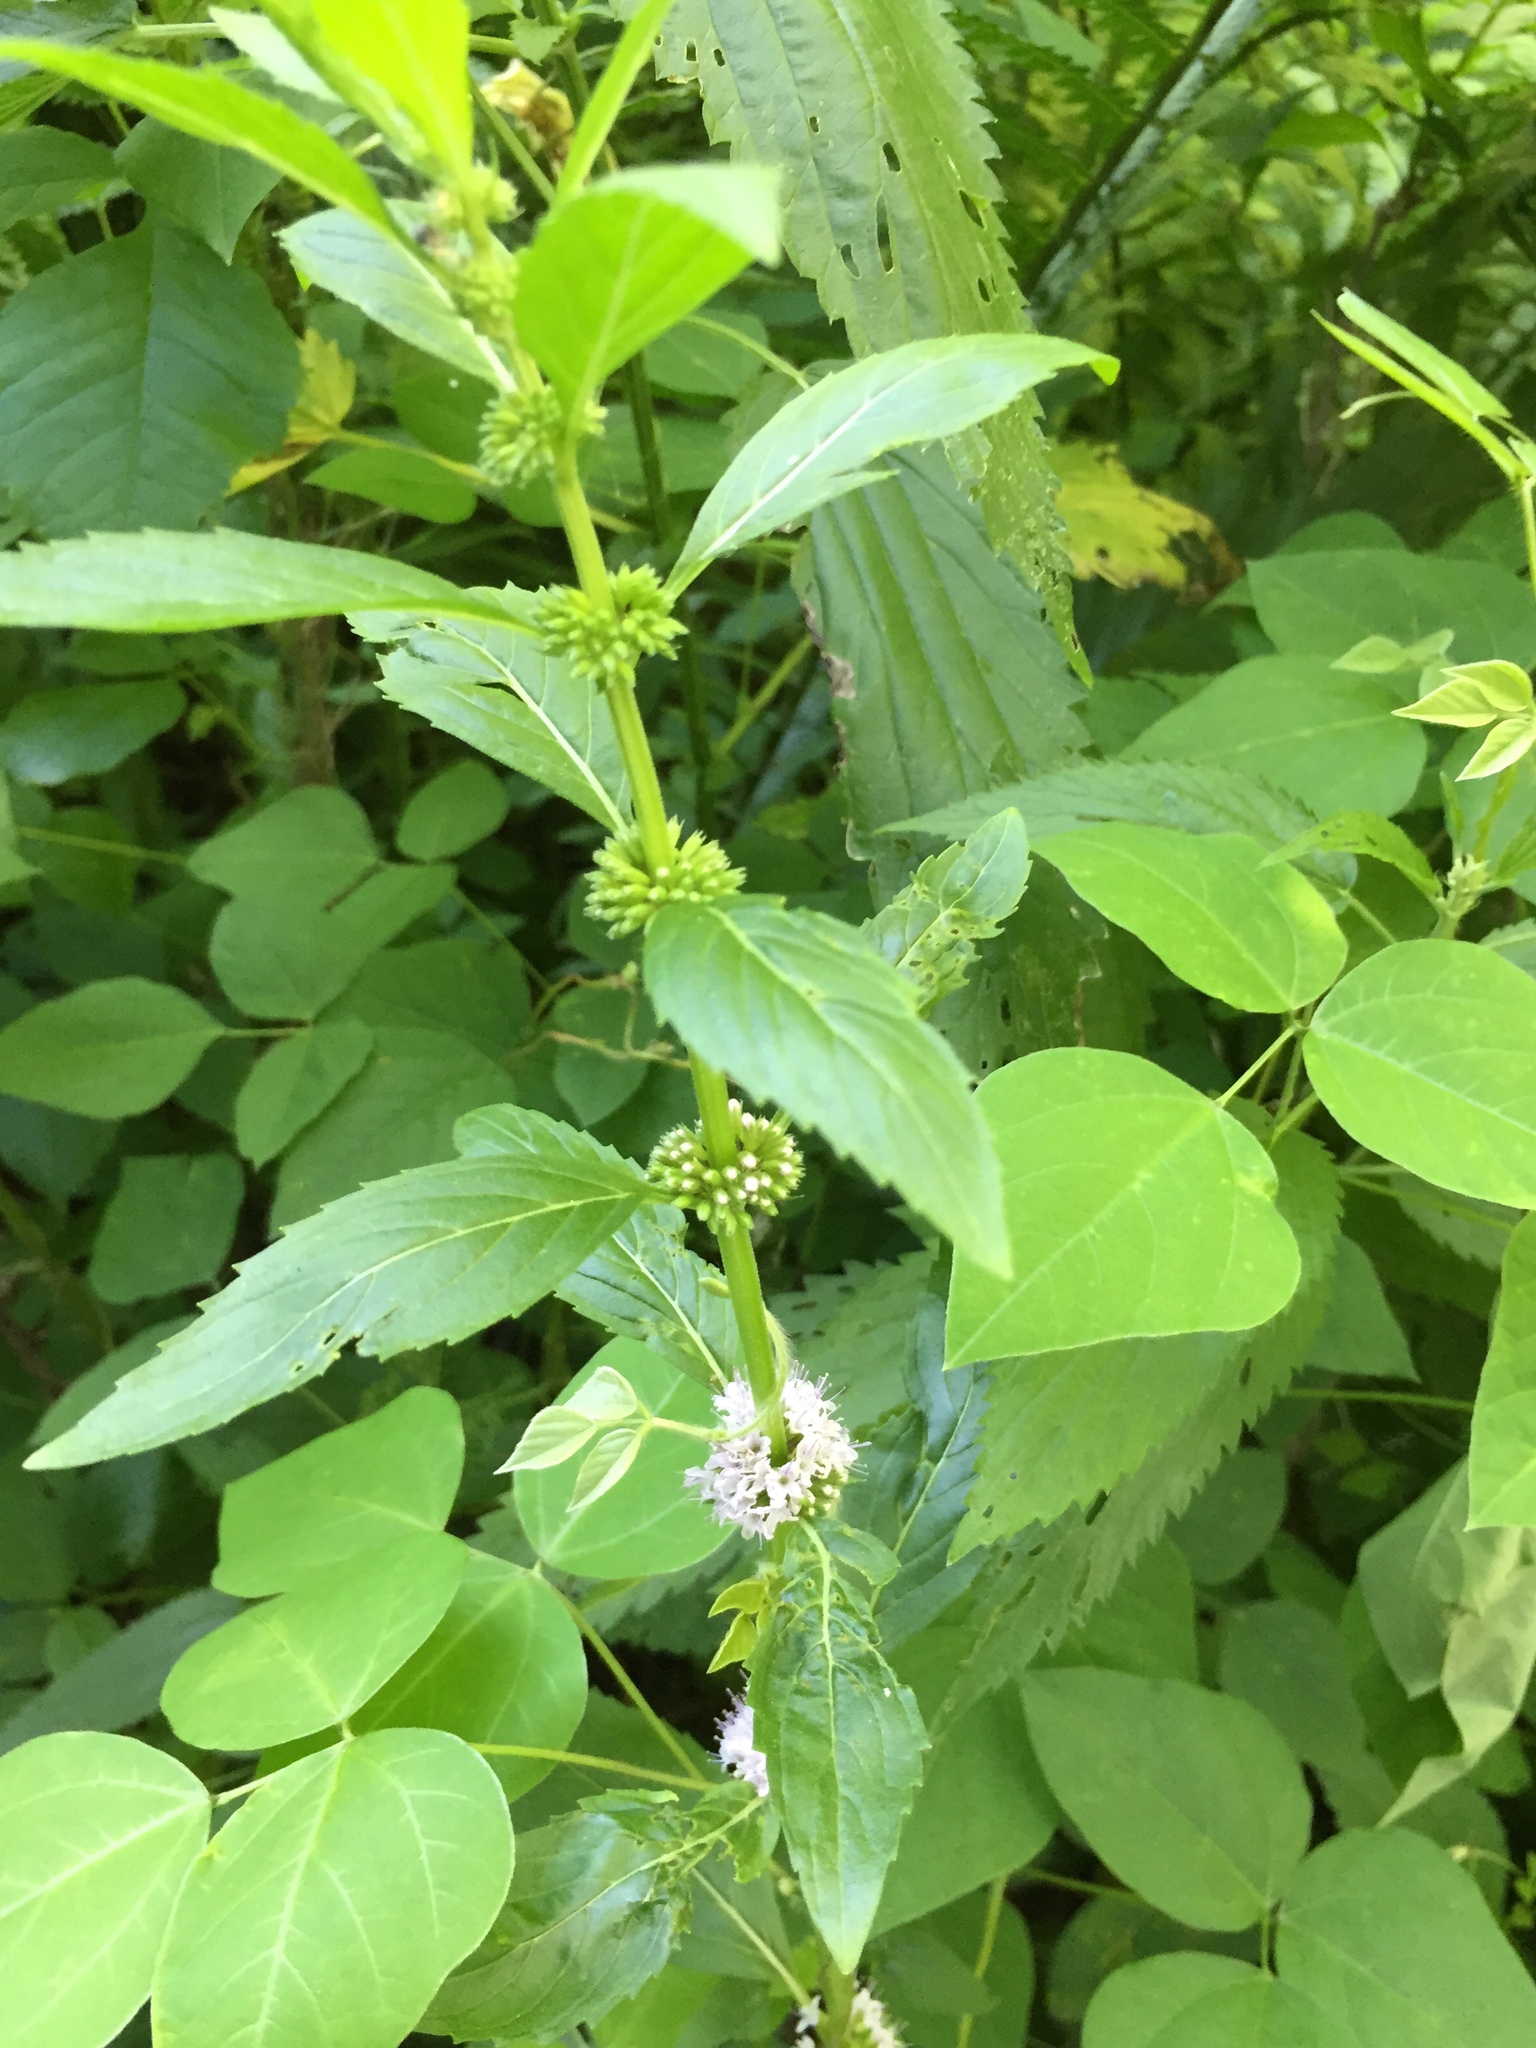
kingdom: Plantae
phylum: Tracheophyta
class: Magnoliopsida
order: Lamiales
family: Lamiaceae
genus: Mentha
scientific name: Mentha canadensis
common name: American corn mint
